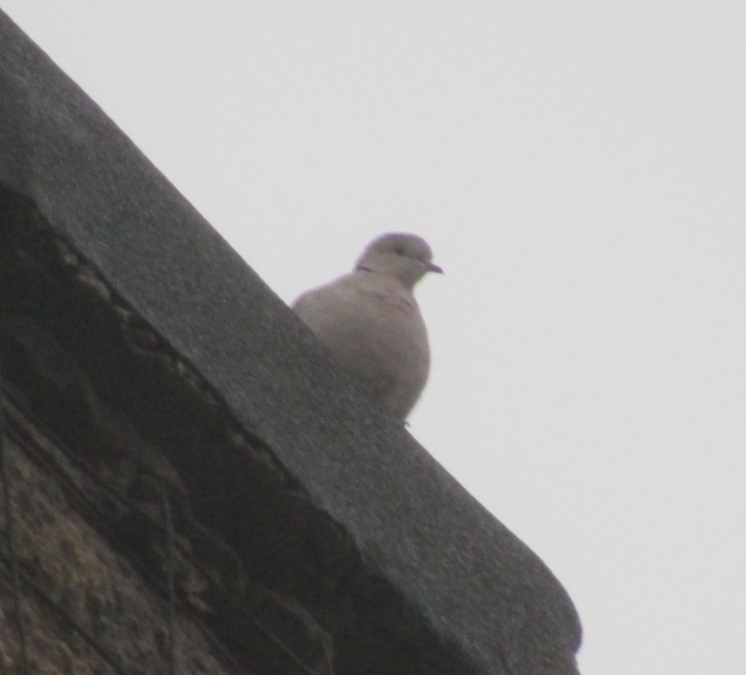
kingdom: Animalia
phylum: Chordata
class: Aves
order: Columbiformes
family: Columbidae
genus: Streptopelia
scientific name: Streptopelia decaocto
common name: Eurasian collared dove
